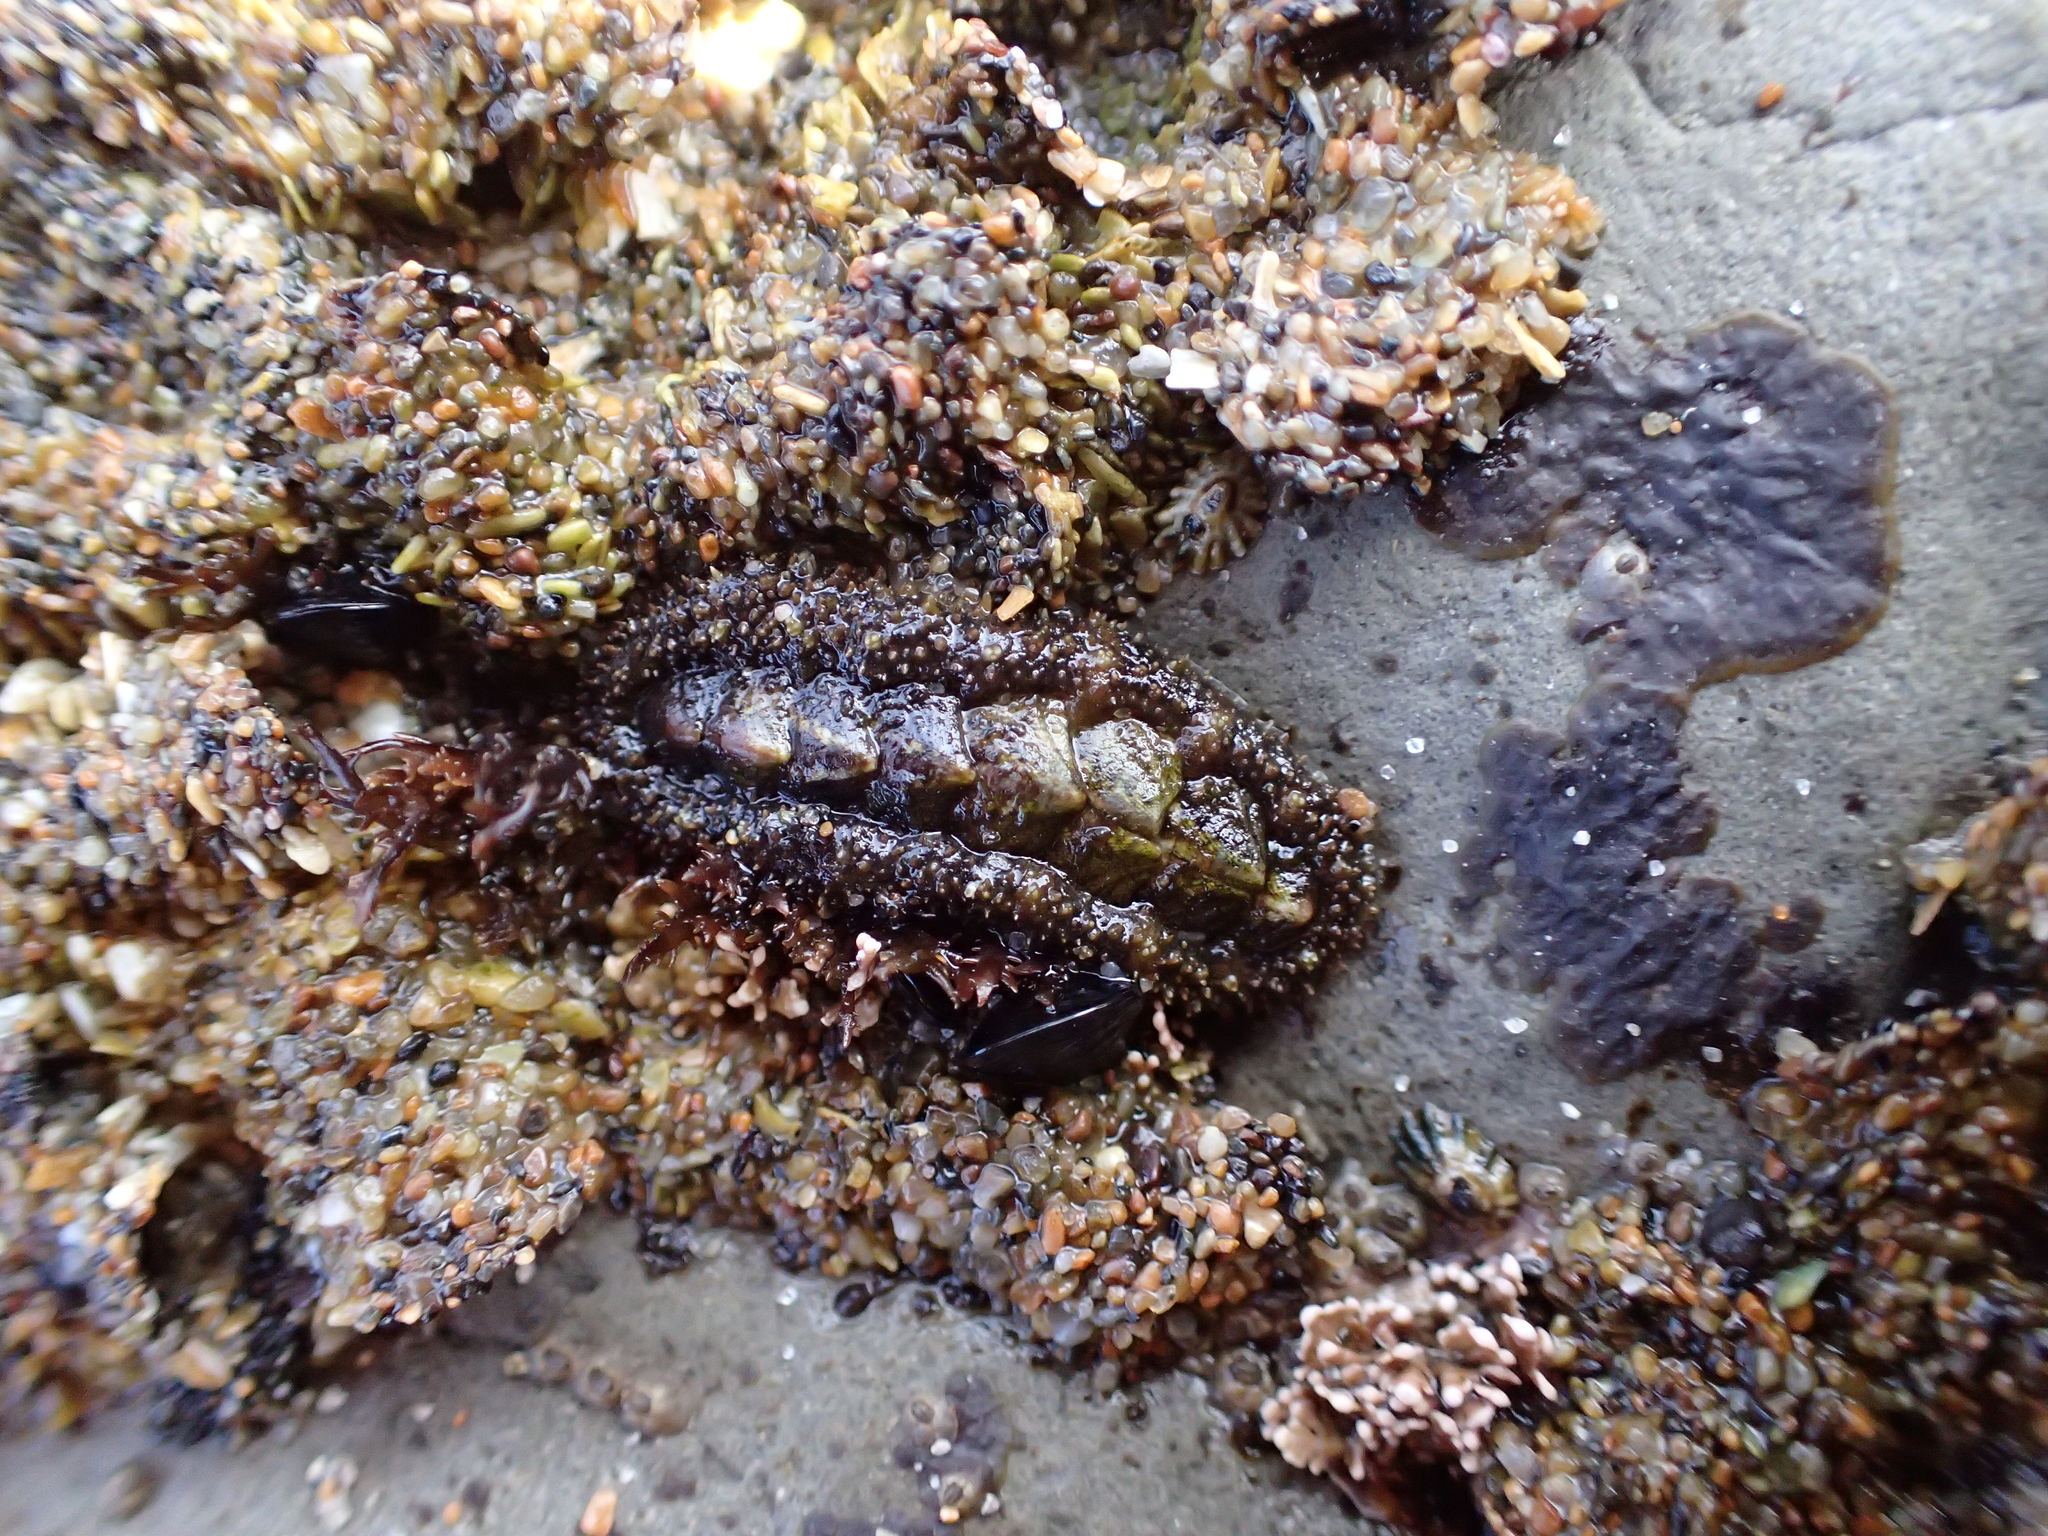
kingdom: Animalia
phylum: Mollusca
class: Polyplacophora
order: Chitonida
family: Tonicellidae
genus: Nuttallina
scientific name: Nuttallina californica
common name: California nuttall chiton
